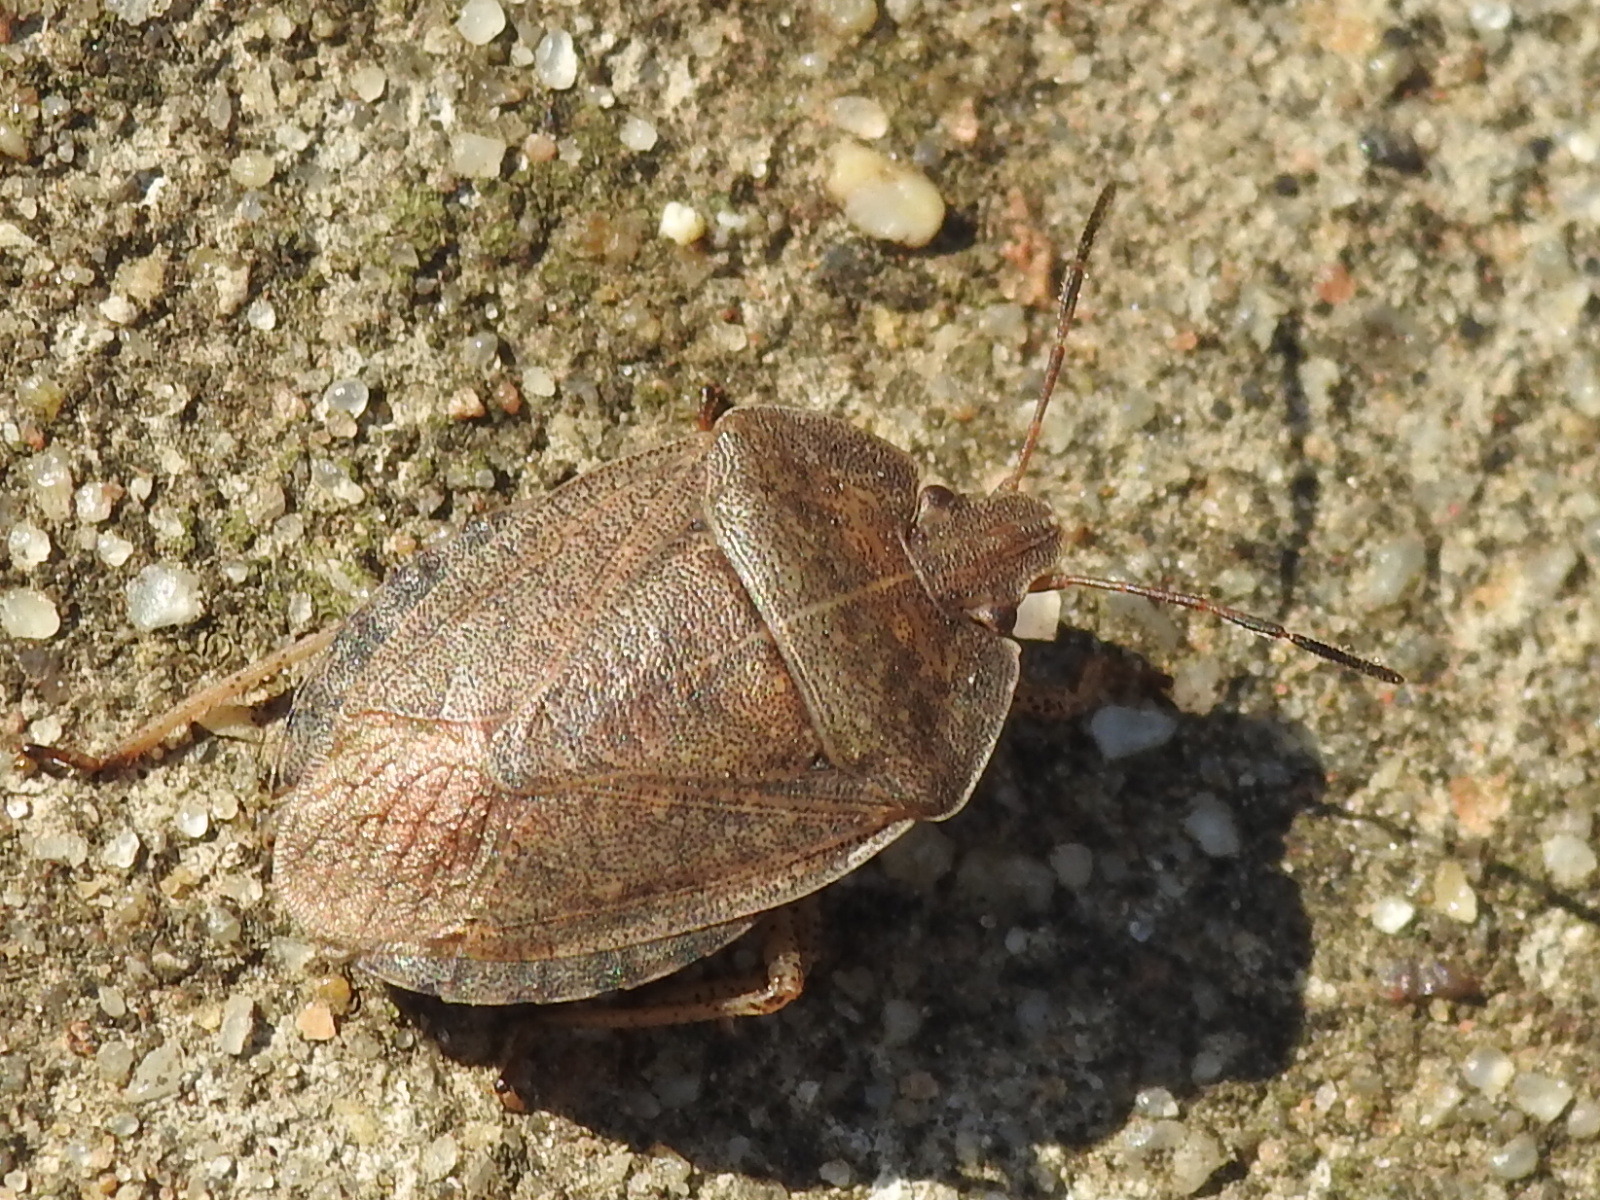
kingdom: Animalia
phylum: Arthropoda
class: Insecta
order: Hemiptera
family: Pentatomidae
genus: Menecles
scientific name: Menecles insertus
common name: Elf shoe stink bug
